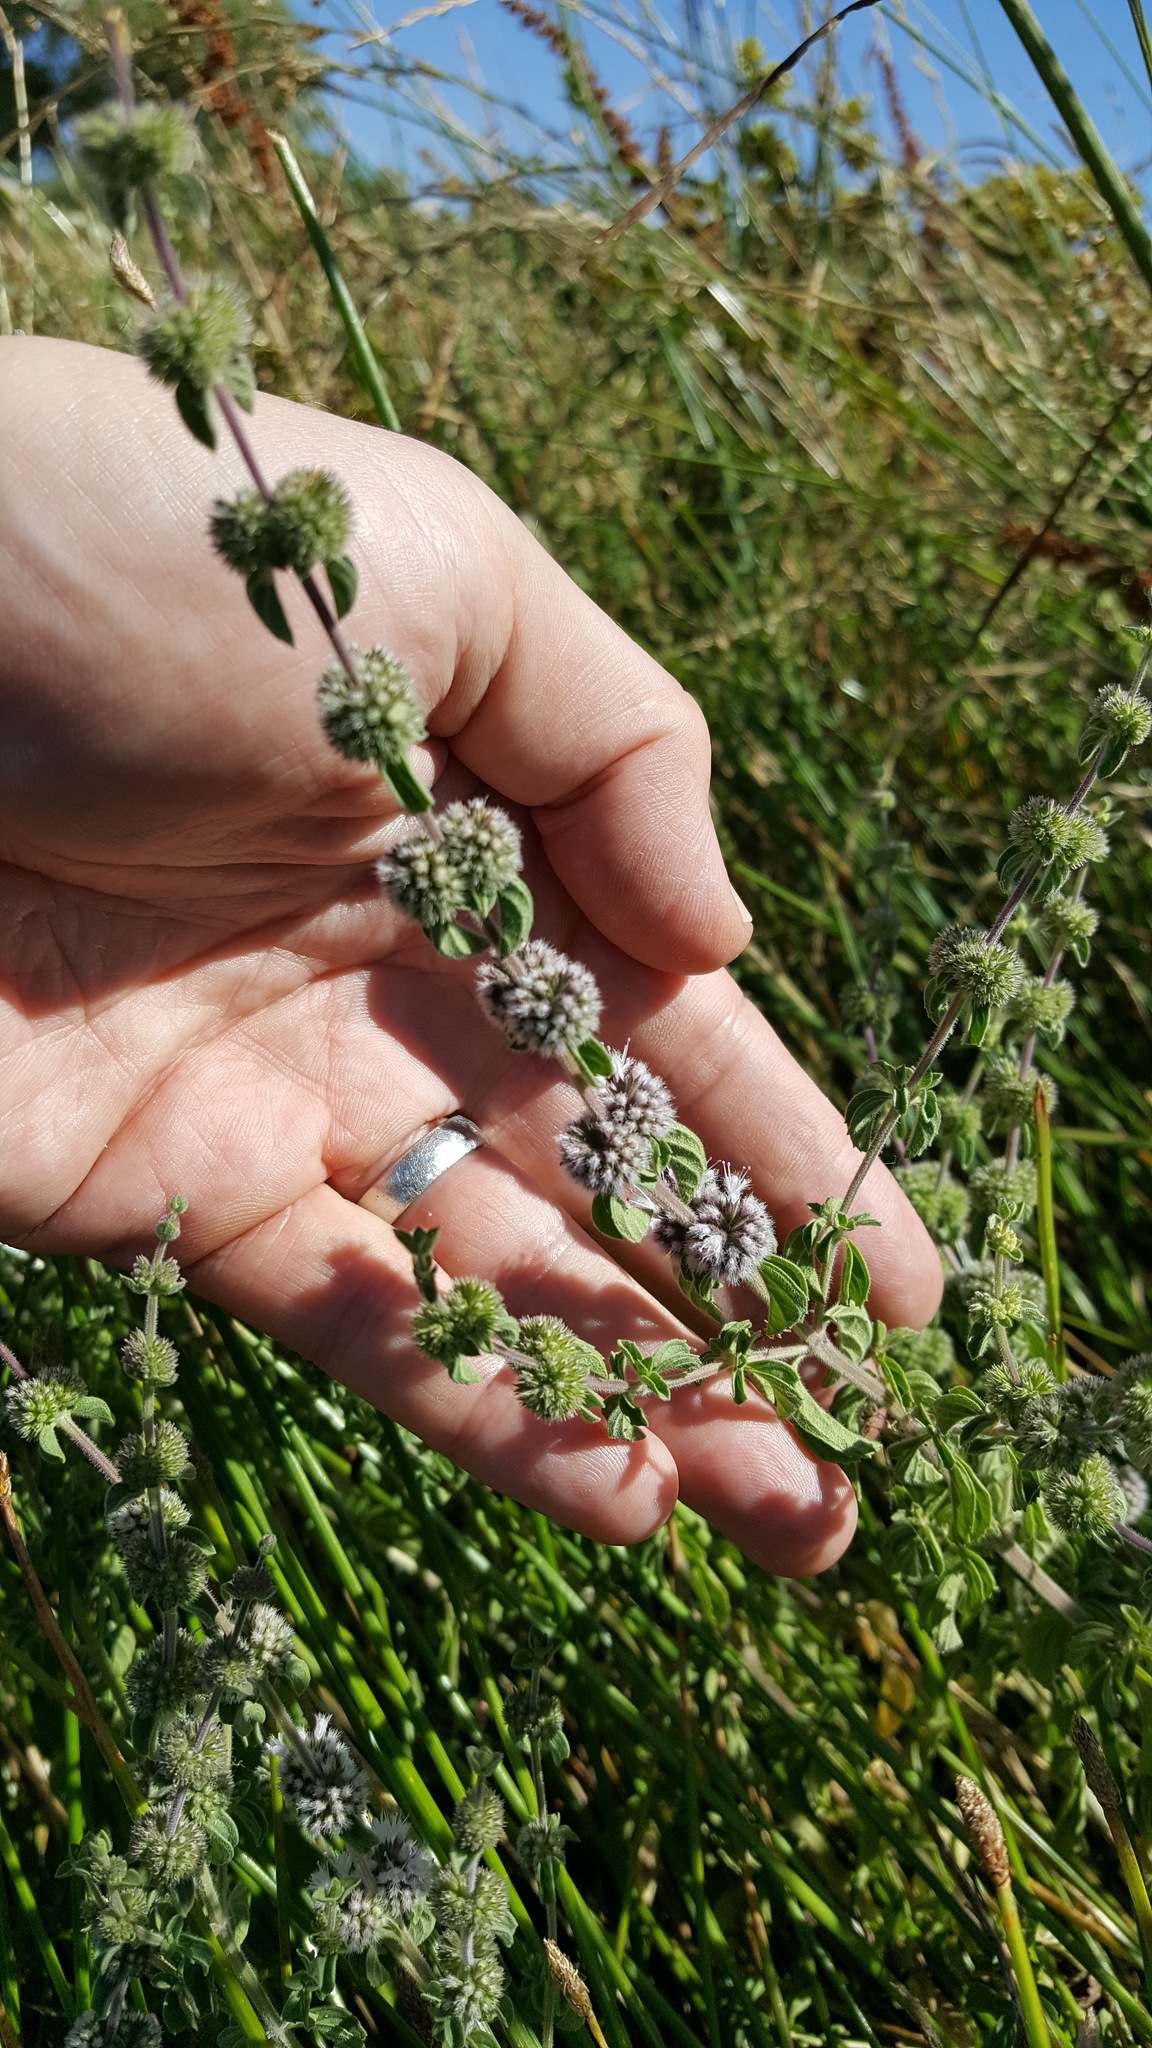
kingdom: Plantae
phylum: Tracheophyta
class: Magnoliopsida
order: Lamiales
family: Lamiaceae
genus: Mentha
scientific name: Mentha pulegium
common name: Pennyroyal
